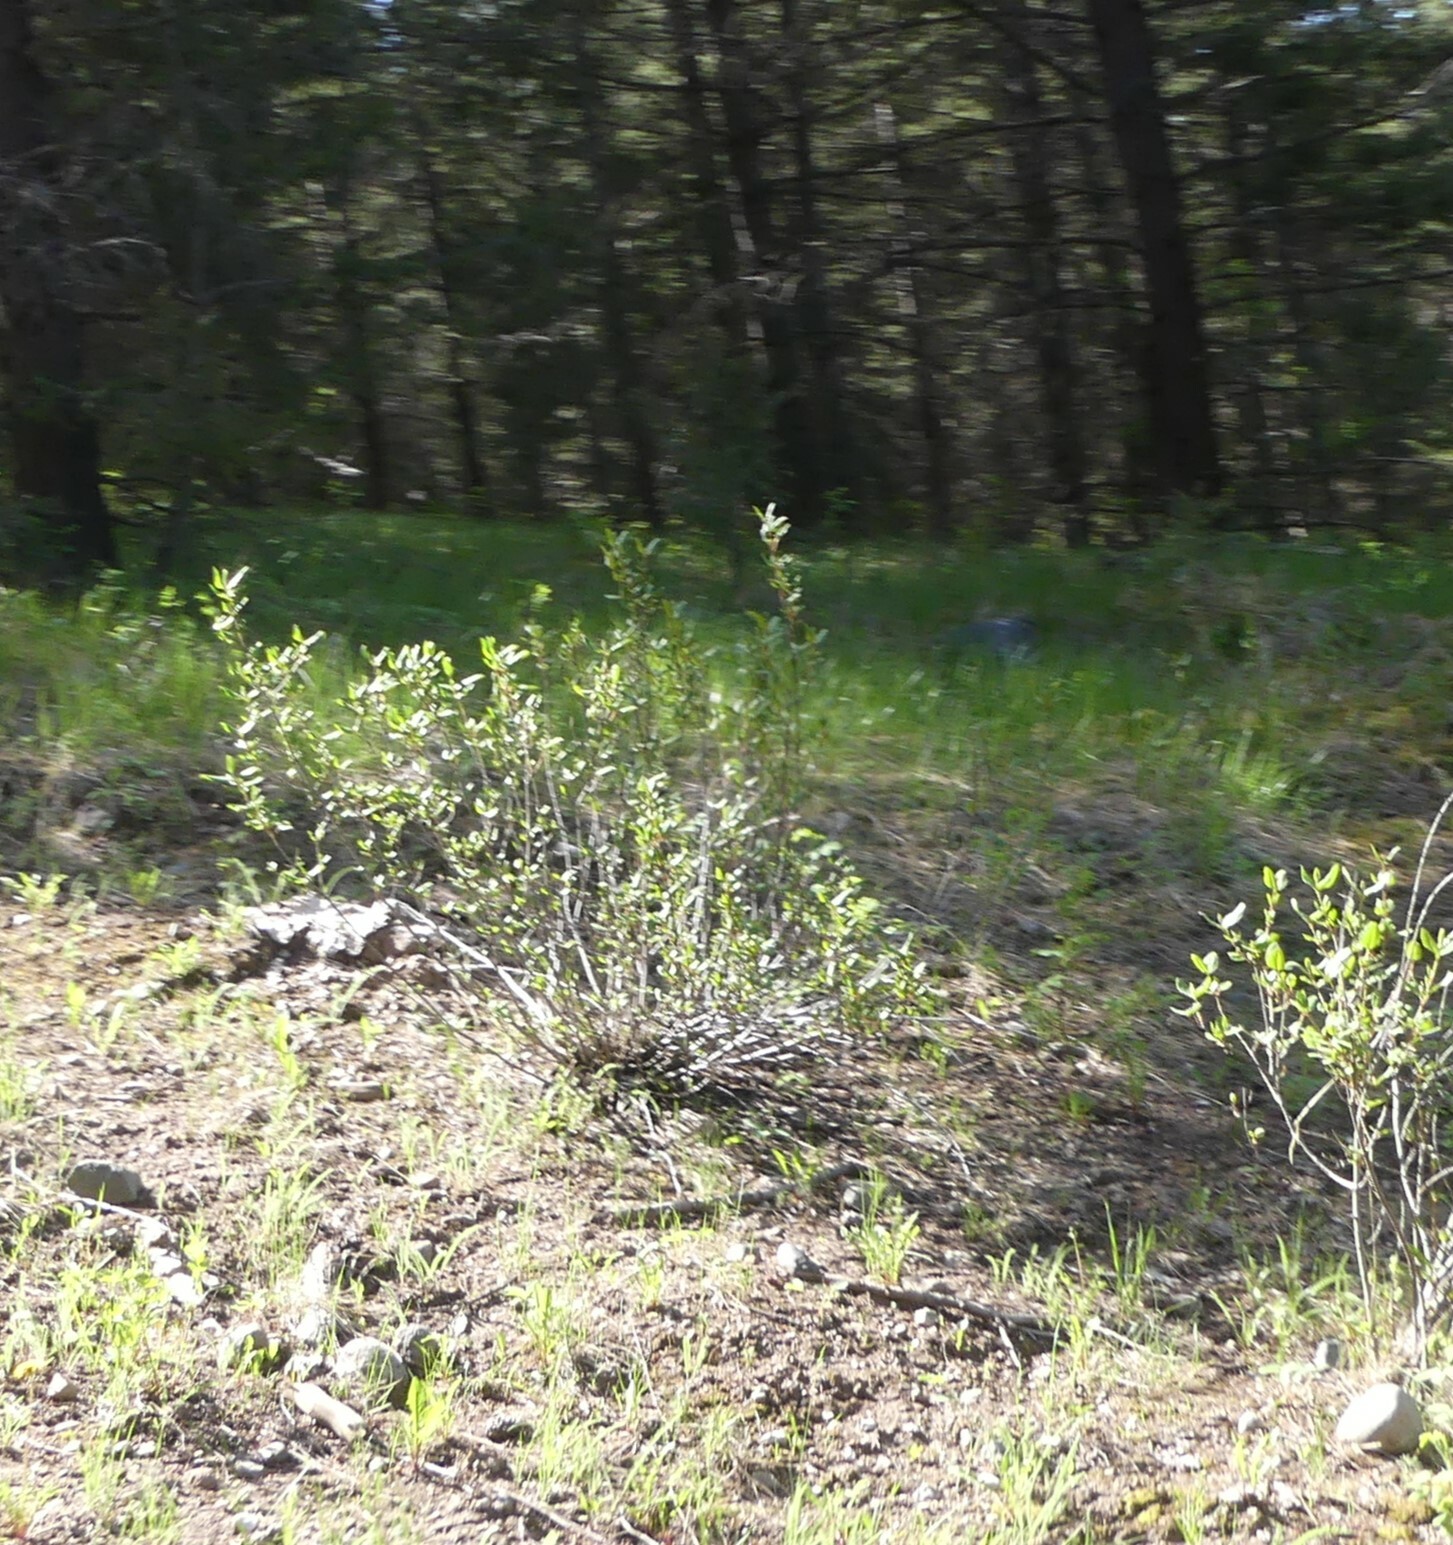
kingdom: Plantae
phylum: Tracheophyta
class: Magnoliopsida
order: Rosales
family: Elaeagnaceae
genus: Shepherdia
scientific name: Shepherdia canadensis
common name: Soapberry
